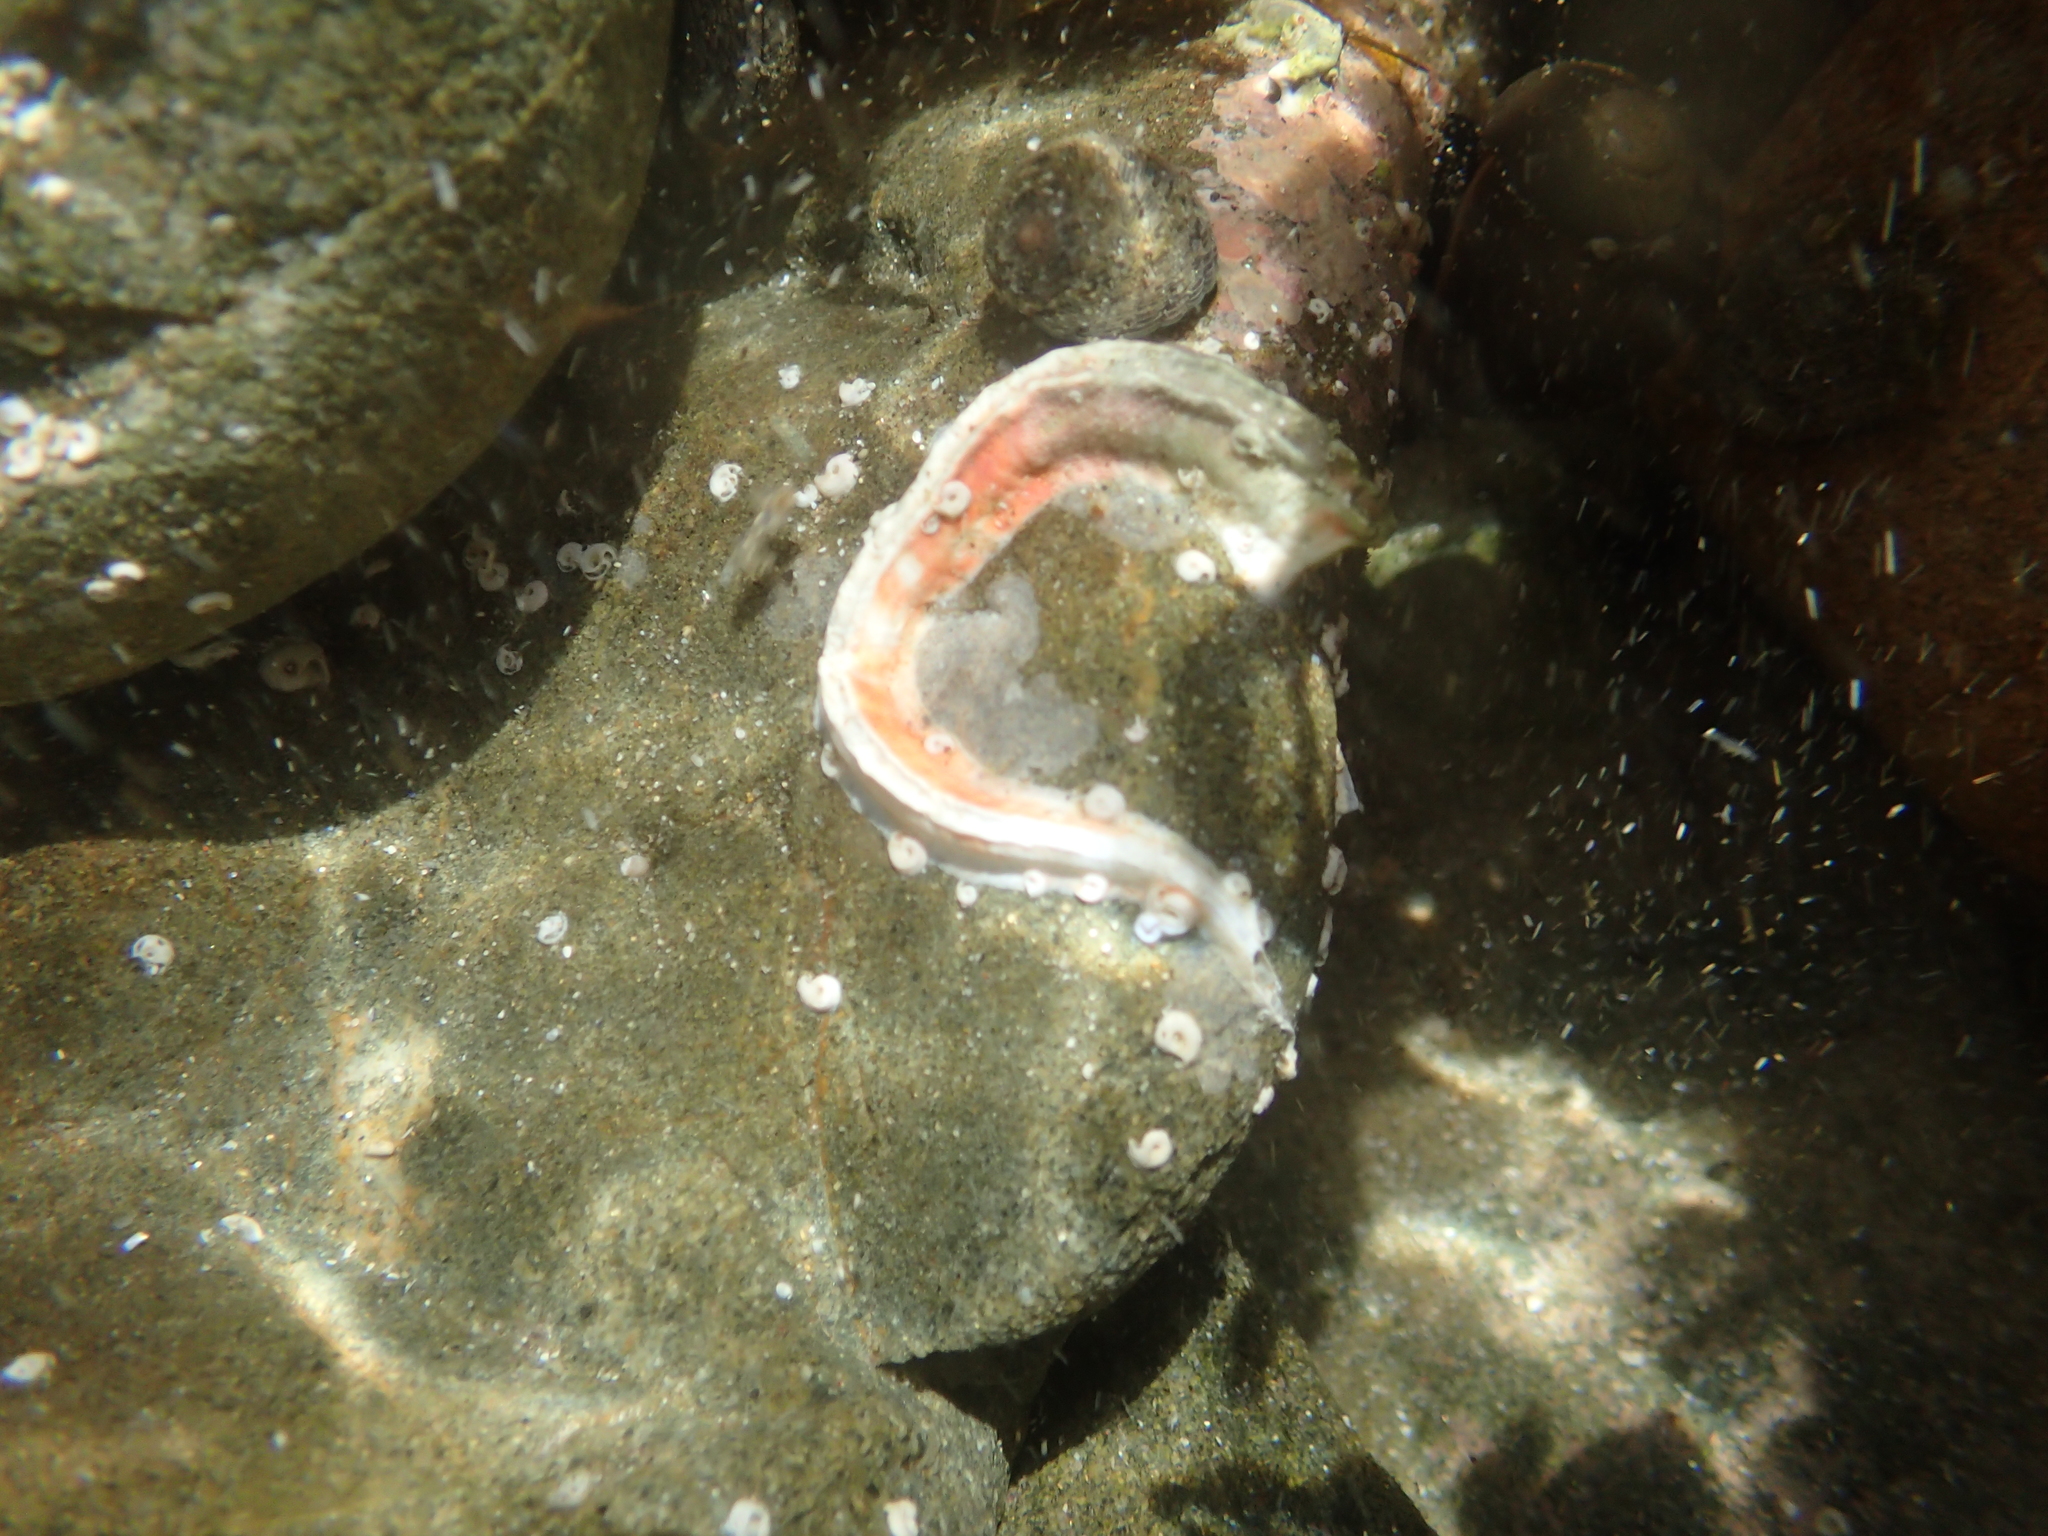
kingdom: Animalia
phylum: Annelida
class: Polychaeta
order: Sabellida
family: Serpulidae
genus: Galeolaria
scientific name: Galeolaria hystrix
